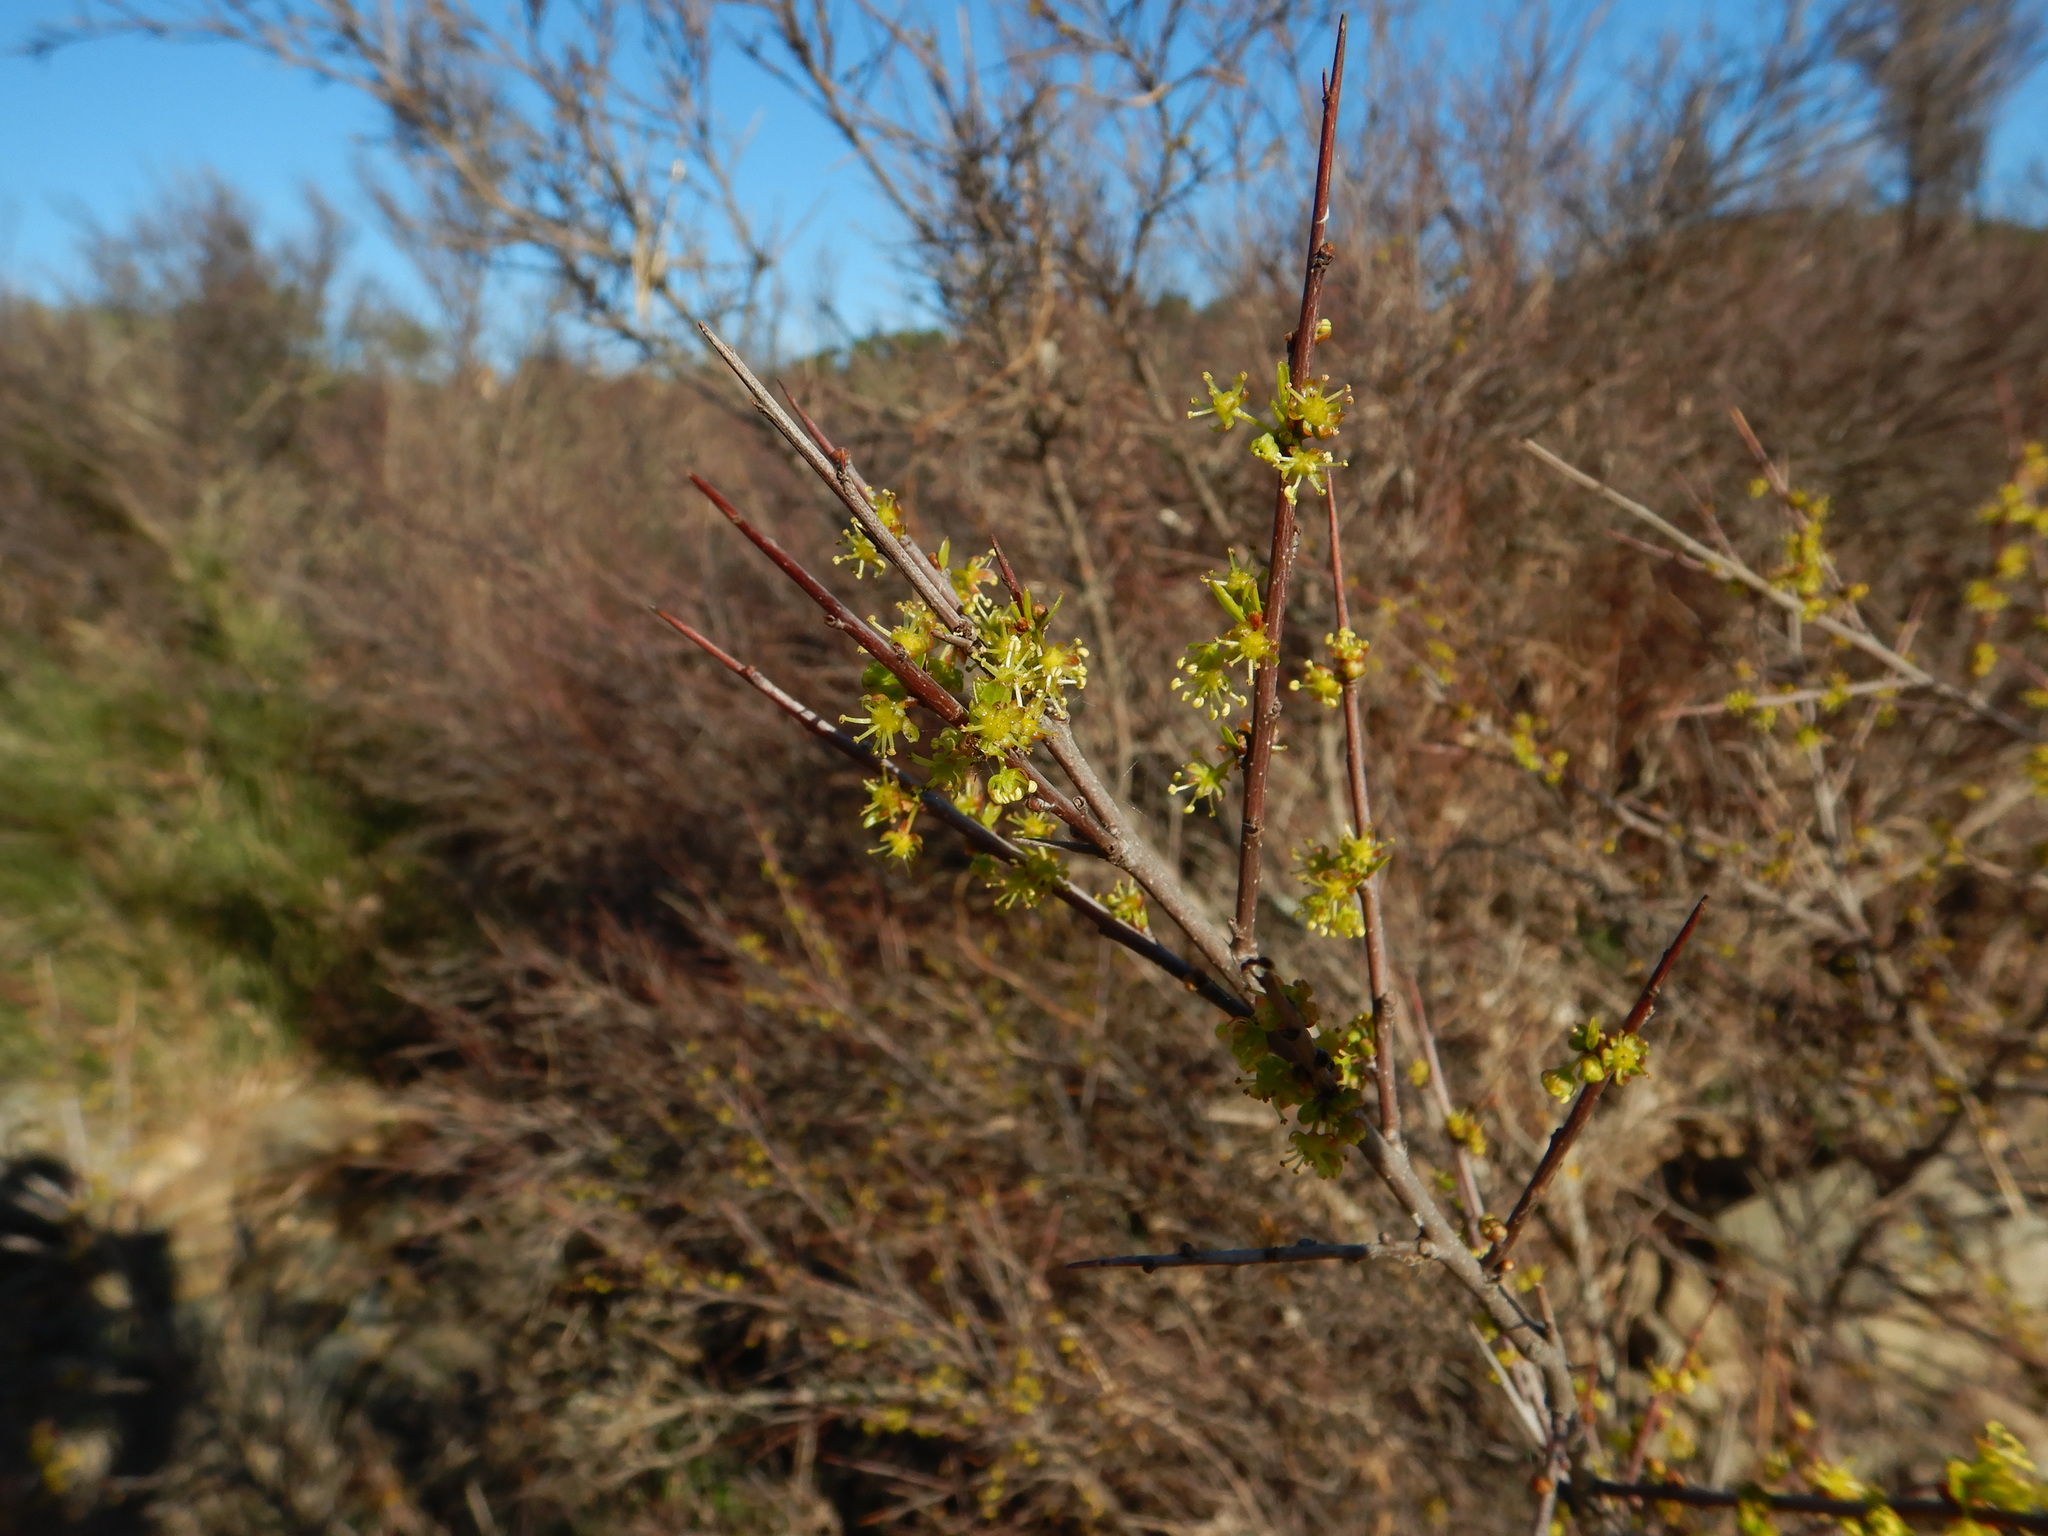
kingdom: Plantae
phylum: Tracheophyta
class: Magnoliopsida
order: Malpighiales
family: Phyllanthaceae
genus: Flueggea
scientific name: Flueggea tinctoria
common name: Tamujo
